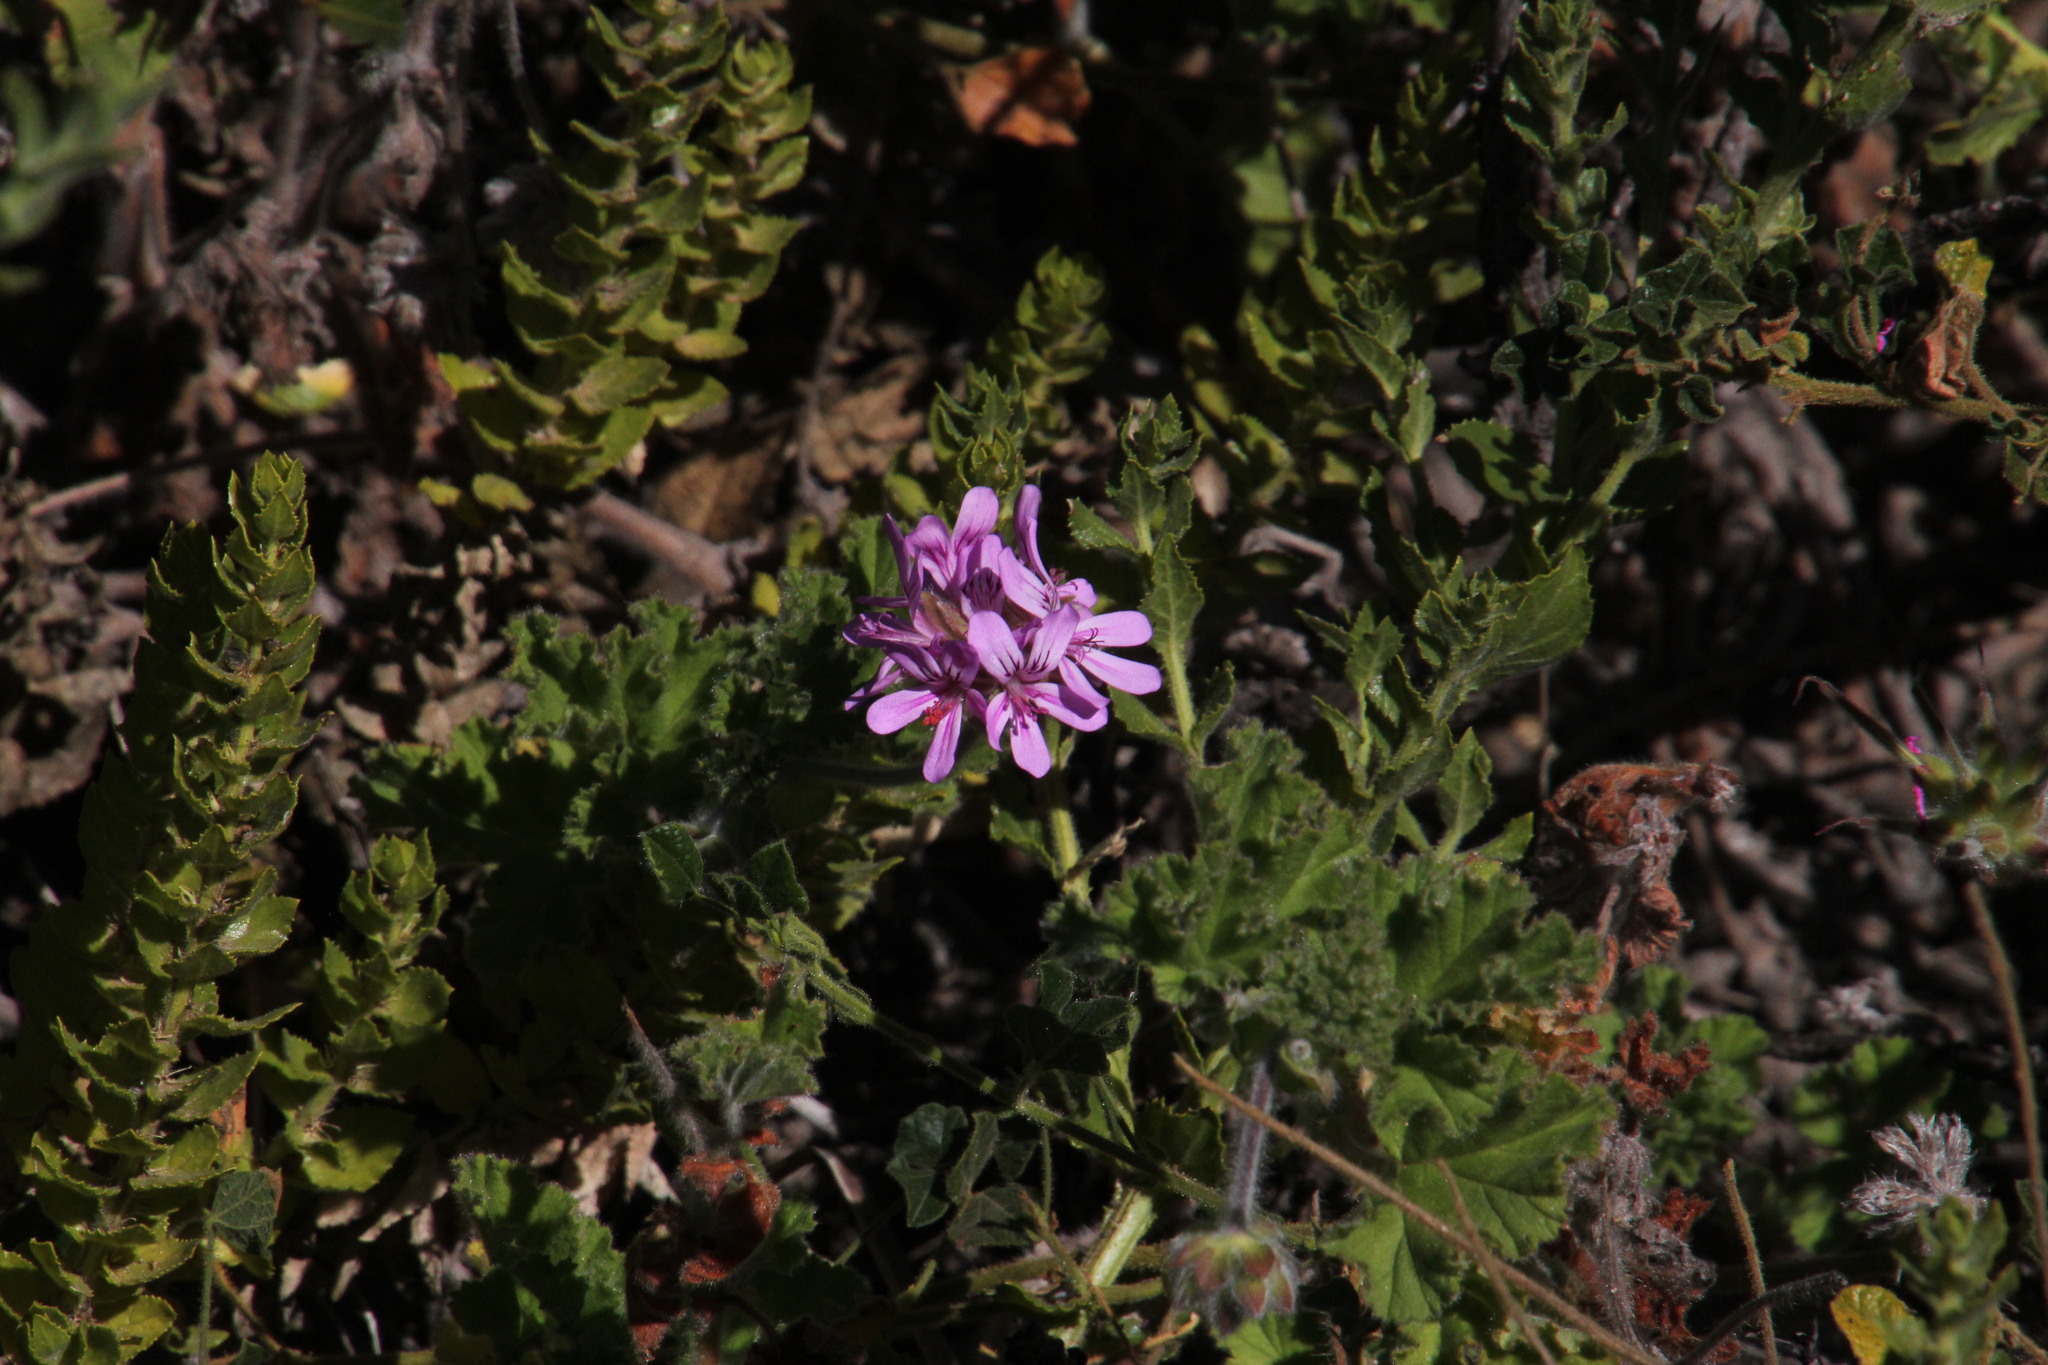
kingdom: Plantae
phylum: Tracheophyta
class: Magnoliopsida
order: Geraniales
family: Geraniaceae
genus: Pelargonium
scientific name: Pelargonium capitatum
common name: Rose scented geranium
